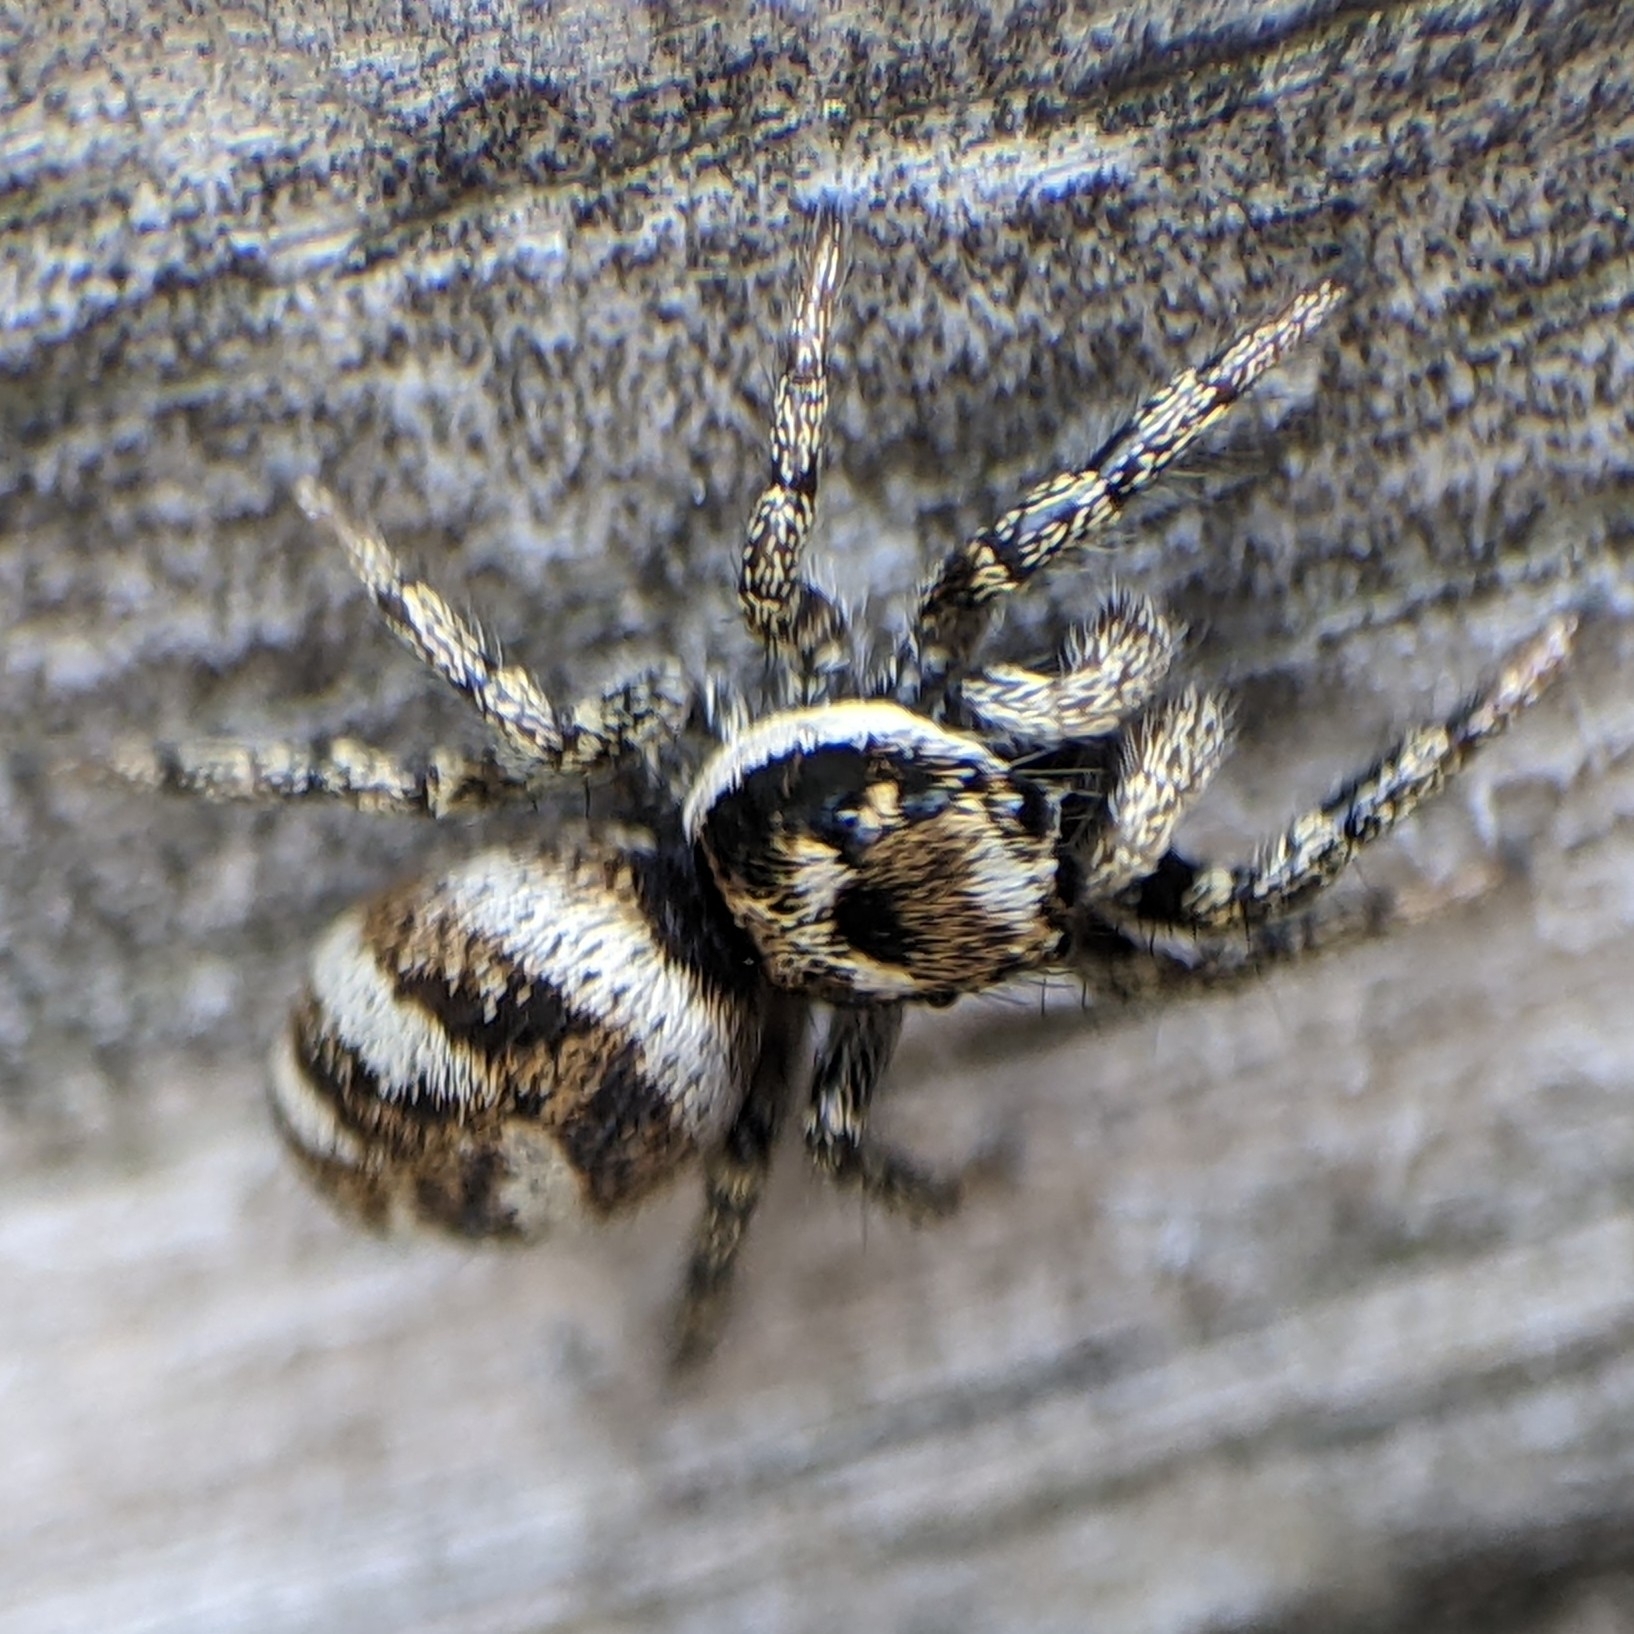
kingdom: Animalia
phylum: Arthropoda
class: Arachnida
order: Araneae
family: Salticidae
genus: Salticus
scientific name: Salticus scenicus
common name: Zebra jumper
